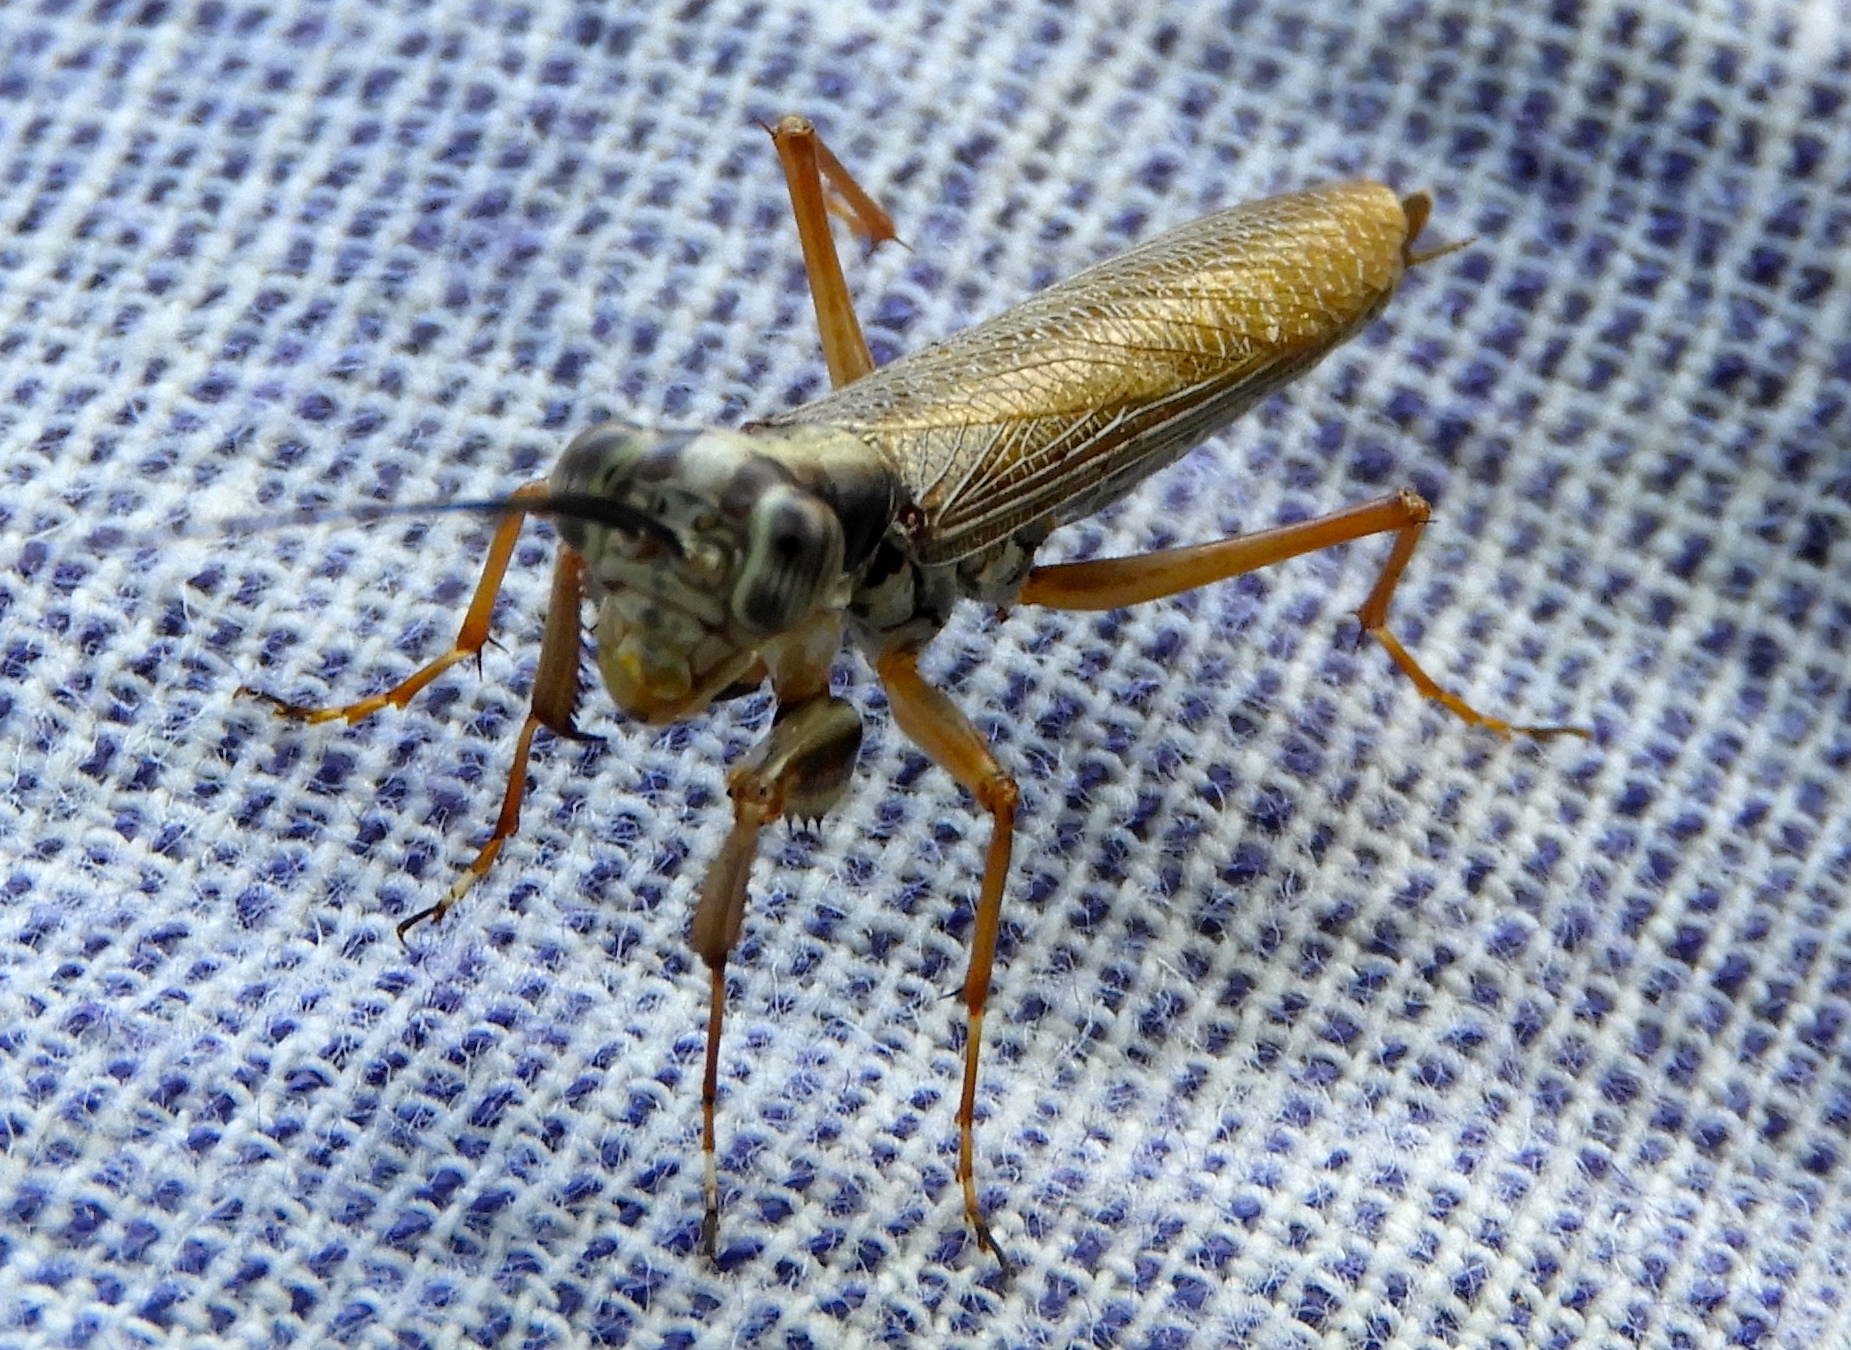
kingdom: Animalia
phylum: Arthropoda
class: Insecta
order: Mantodea
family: Mantoididae
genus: Mantoida
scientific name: Mantoida maya
